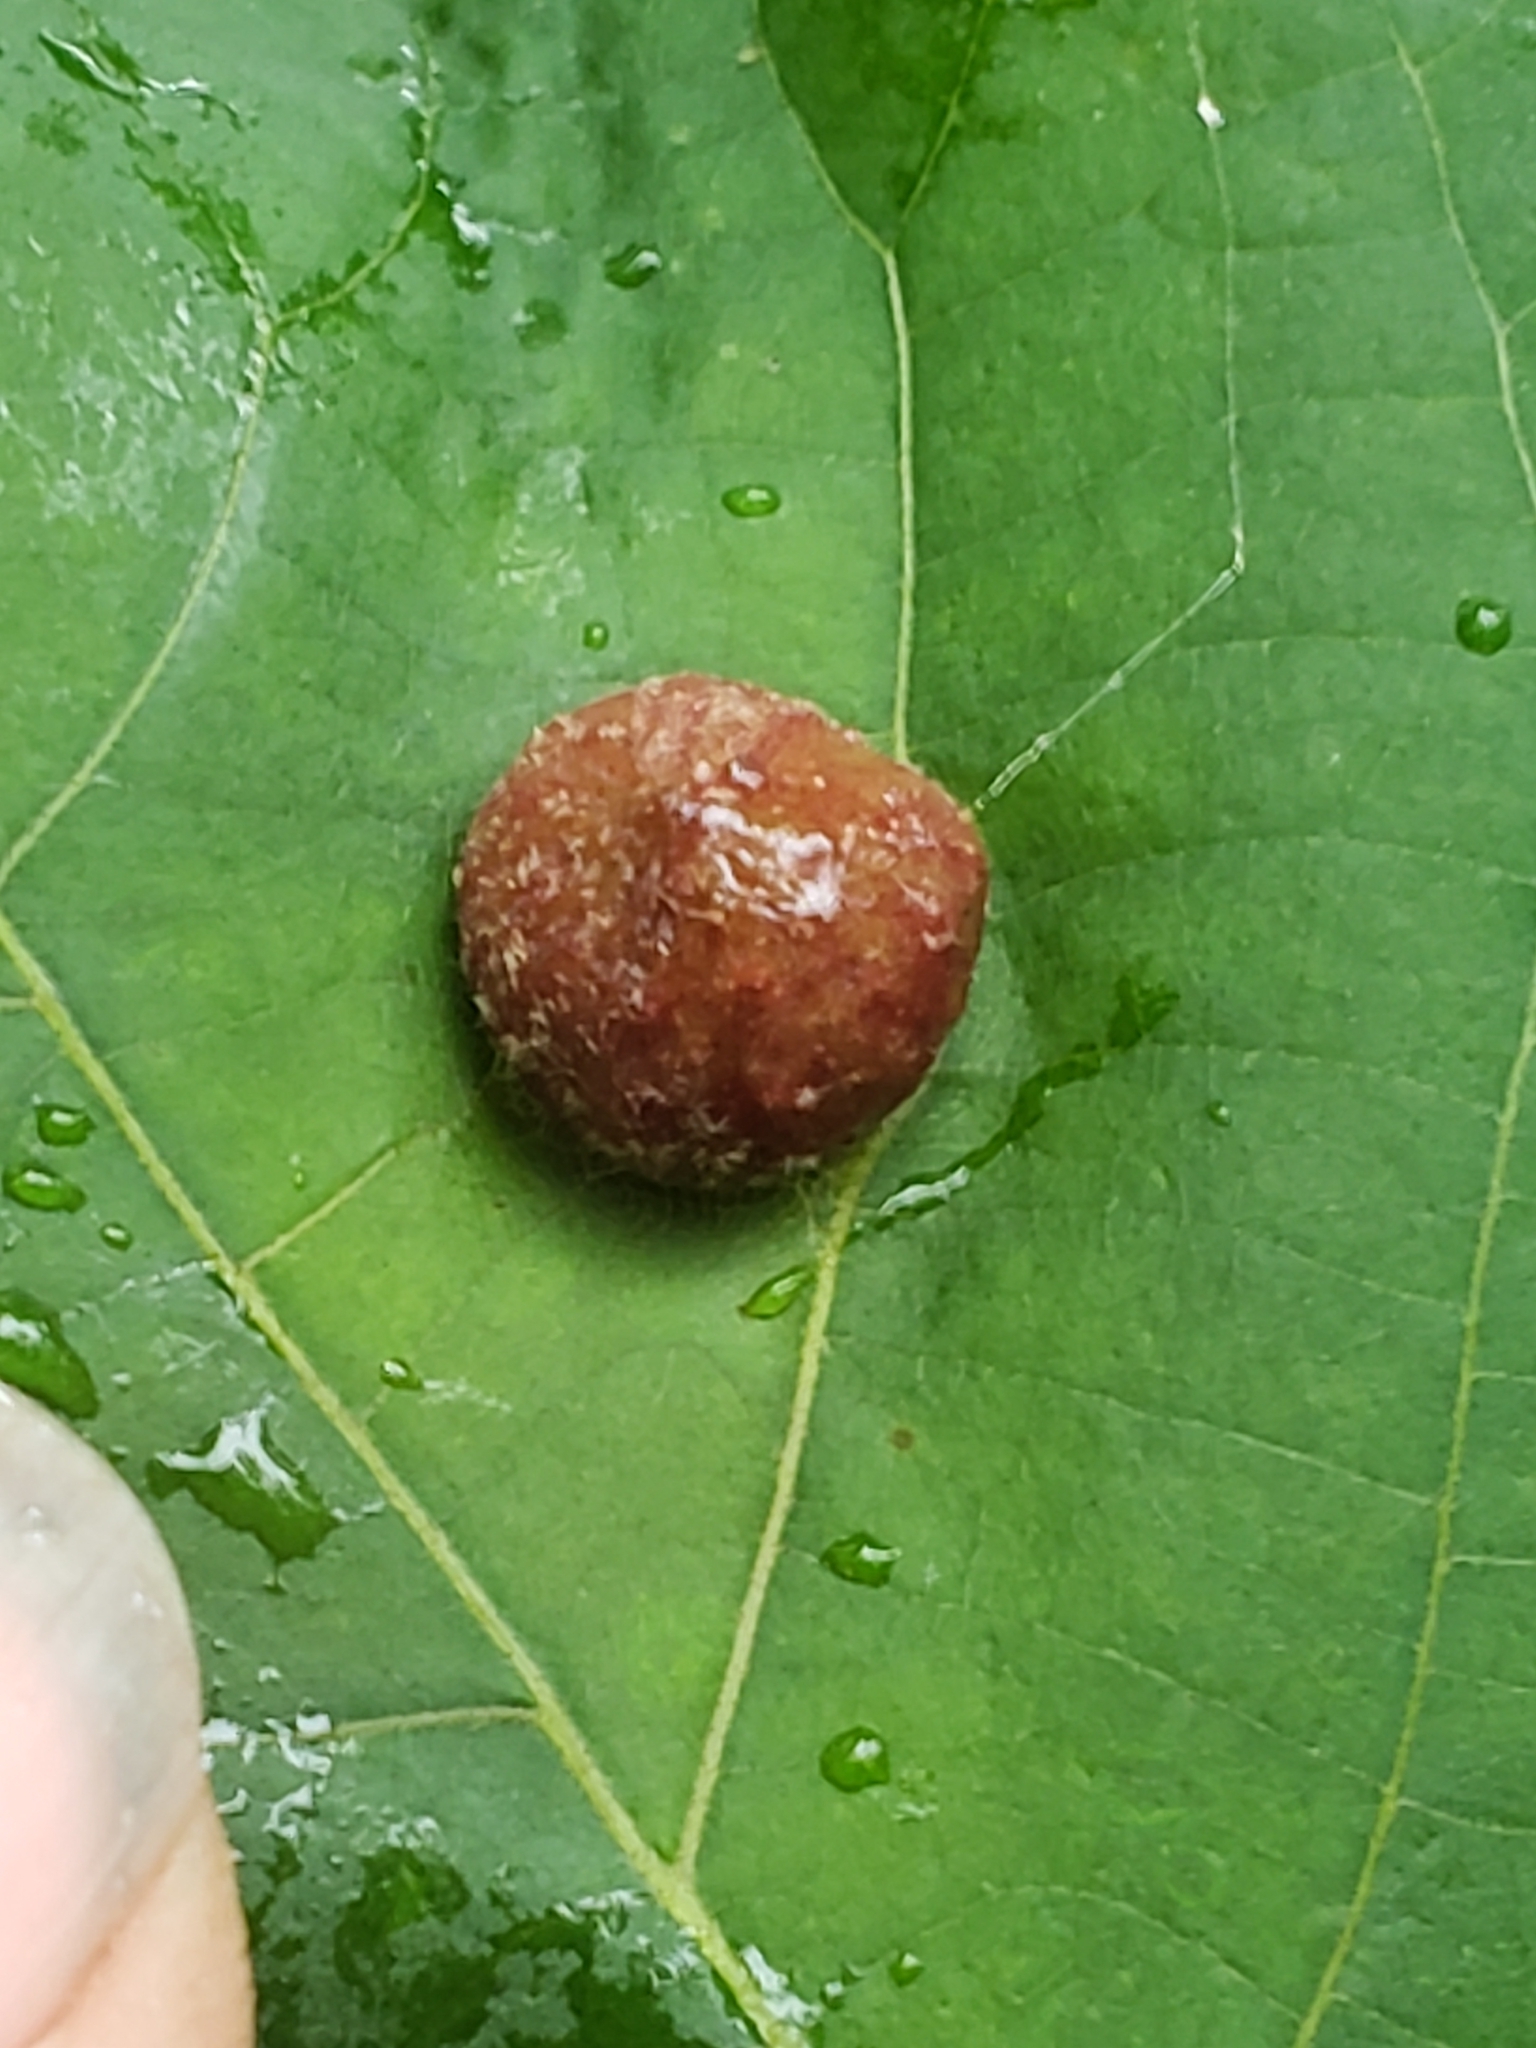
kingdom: Animalia
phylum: Arthropoda
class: Insecta
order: Hemiptera
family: Phylloxeridae
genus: Daktulosphaira
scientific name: Daktulosphaira conicum
